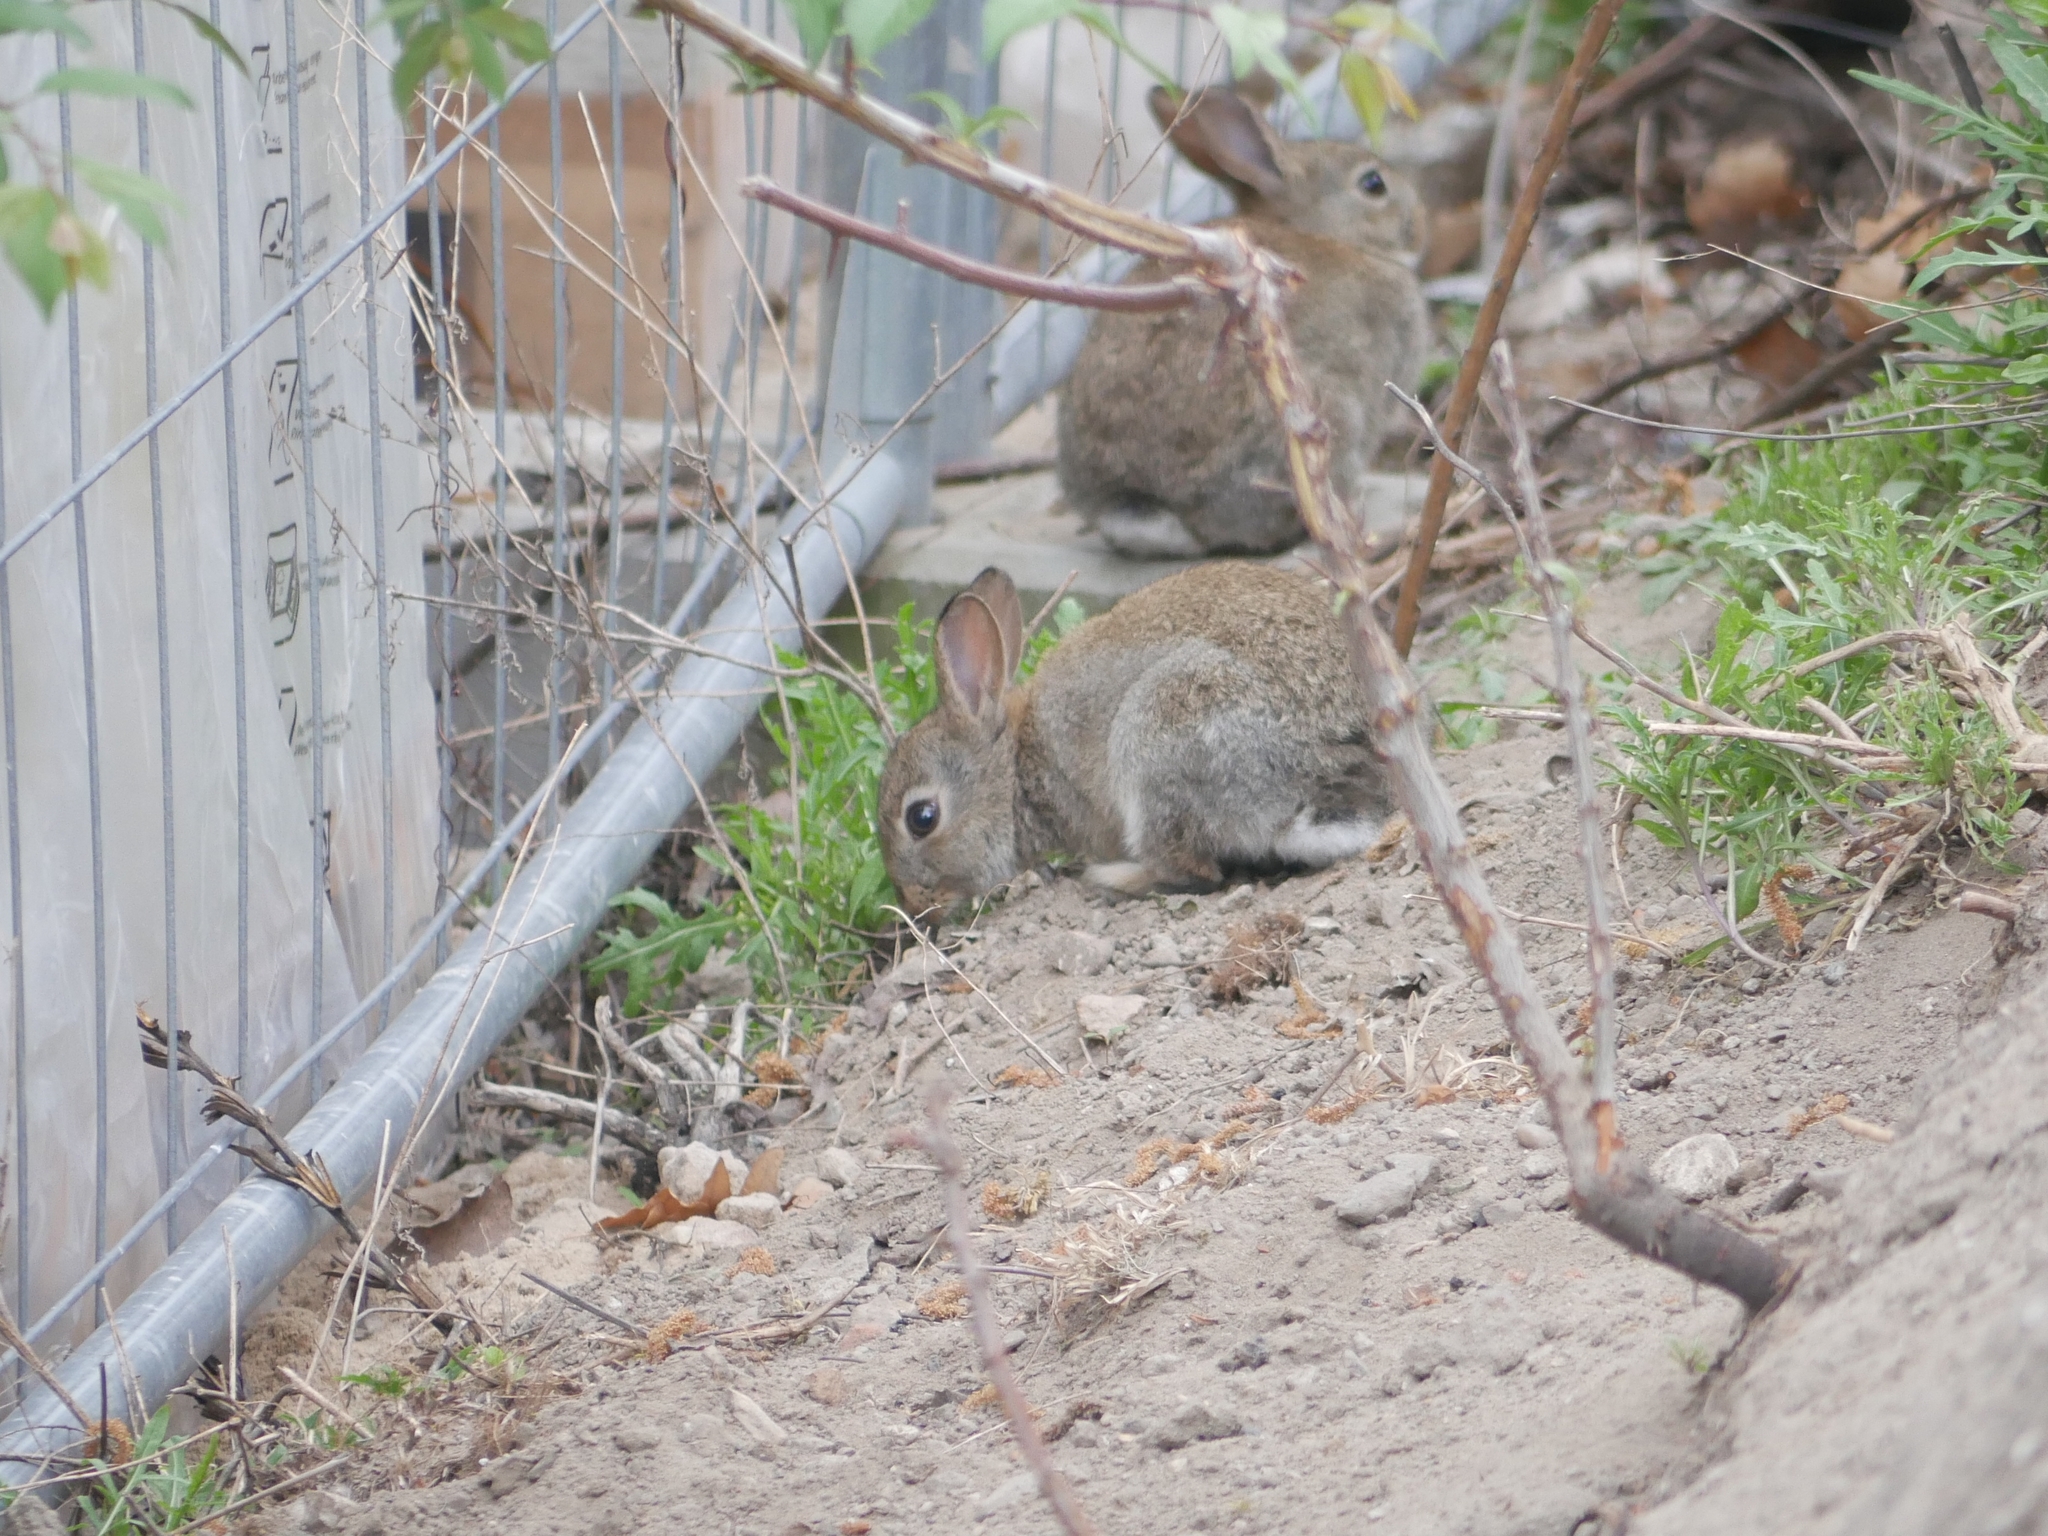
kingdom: Animalia
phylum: Chordata
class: Mammalia
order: Lagomorpha
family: Leporidae
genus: Oryctolagus
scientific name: Oryctolagus cuniculus
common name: European rabbit
